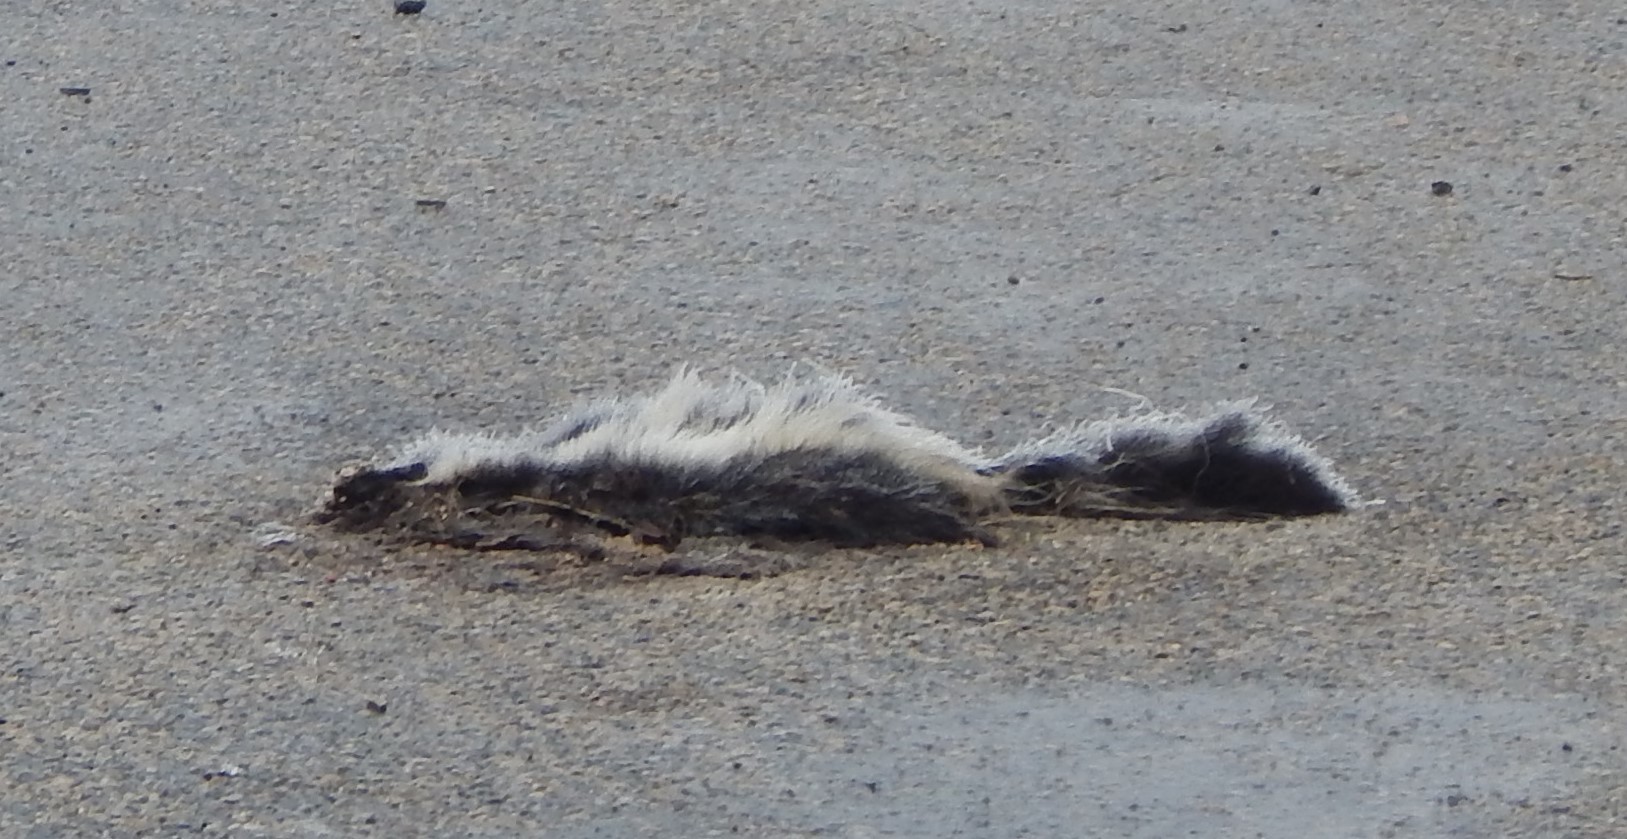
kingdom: Animalia
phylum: Chordata
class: Mammalia
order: Carnivora
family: Mephitidae
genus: Mephitis
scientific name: Mephitis mephitis
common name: Striped skunk
